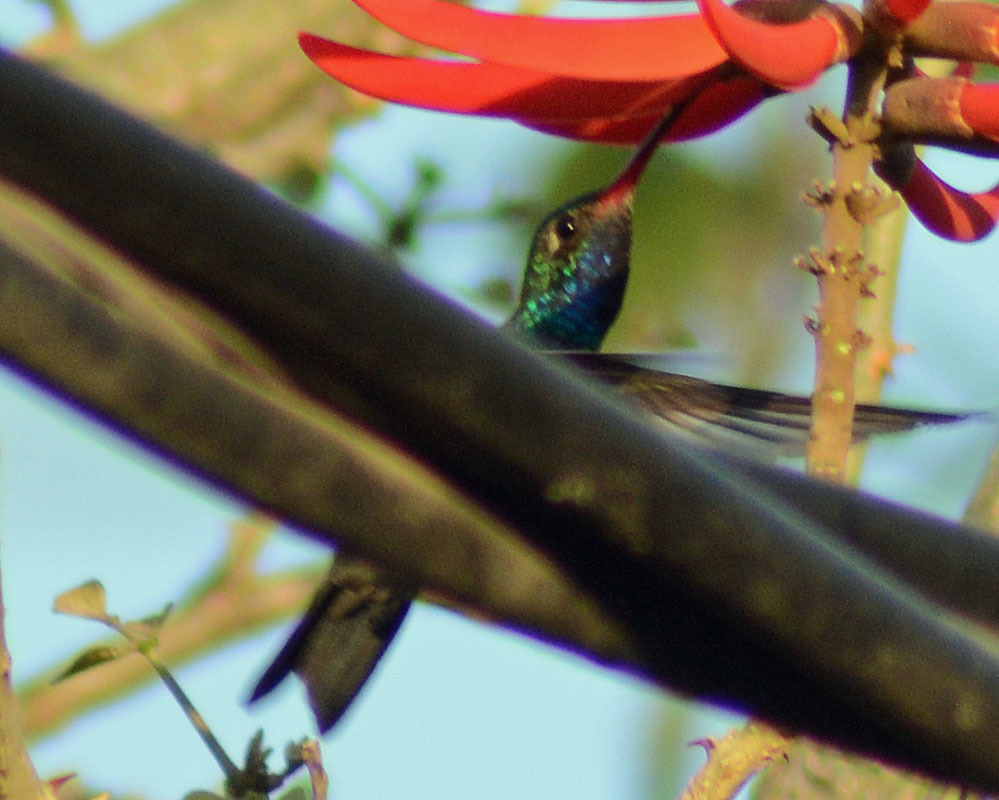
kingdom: Animalia
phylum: Chordata
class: Aves
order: Apodiformes
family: Trochilidae
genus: Cynanthus
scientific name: Cynanthus latirostris
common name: Broad-billed hummingbird
